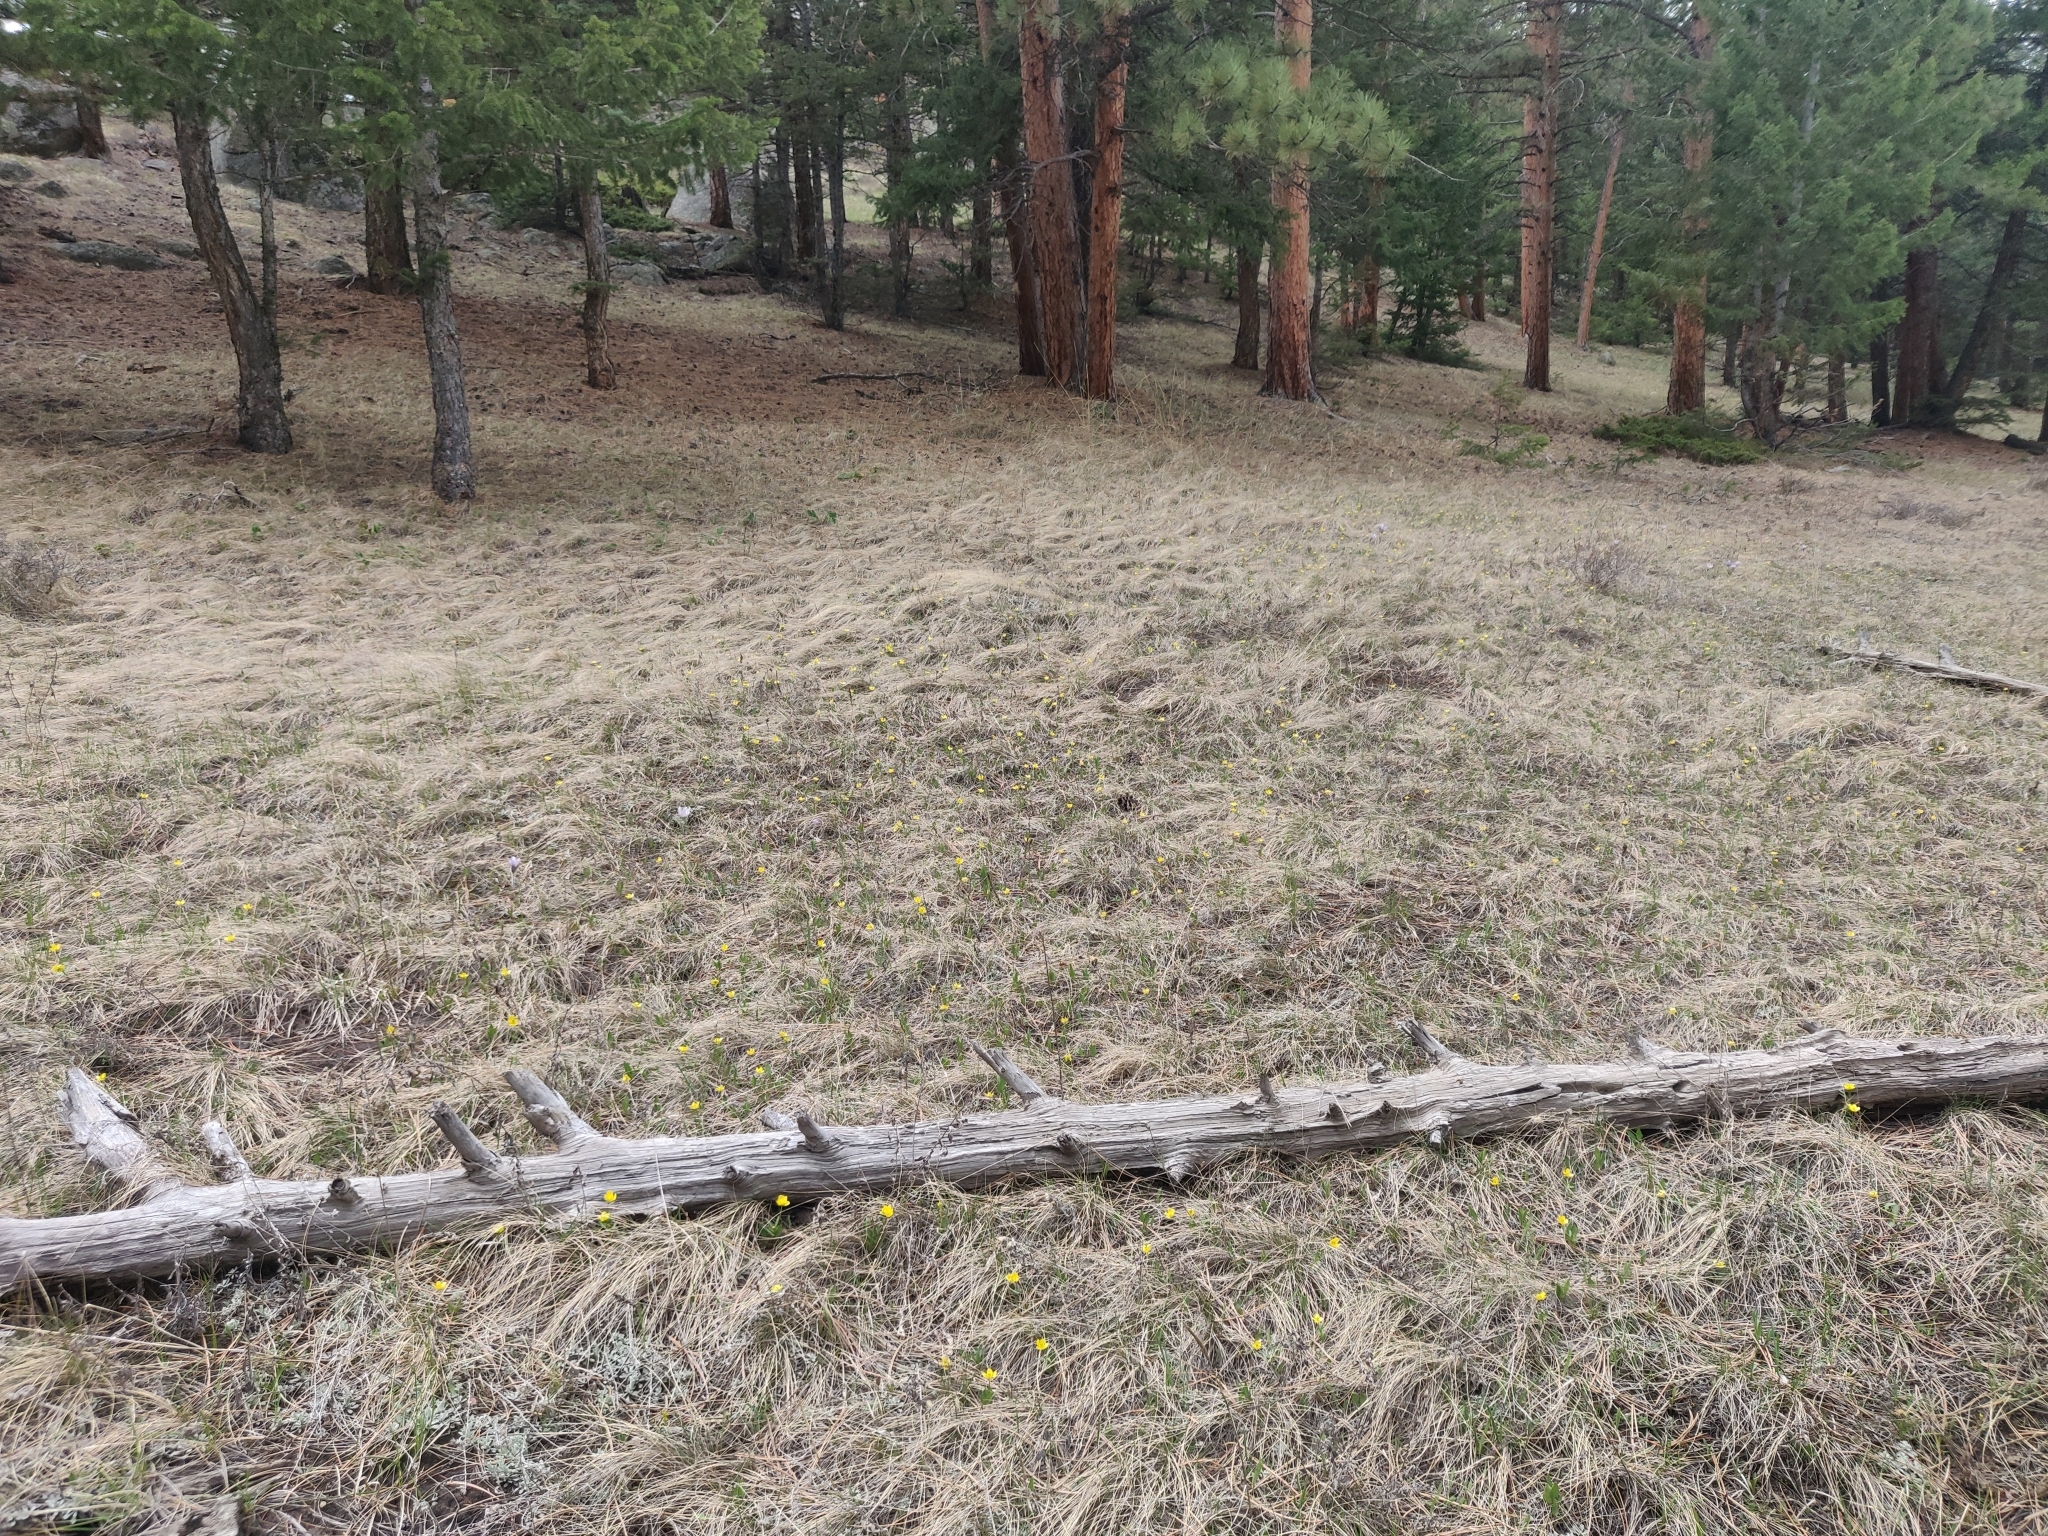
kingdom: Plantae
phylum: Tracheophyta
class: Magnoliopsida
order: Caryophyllales
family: Montiaceae
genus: Claytonia
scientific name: Claytonia rosea
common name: Rocky mountain spring-beauty
